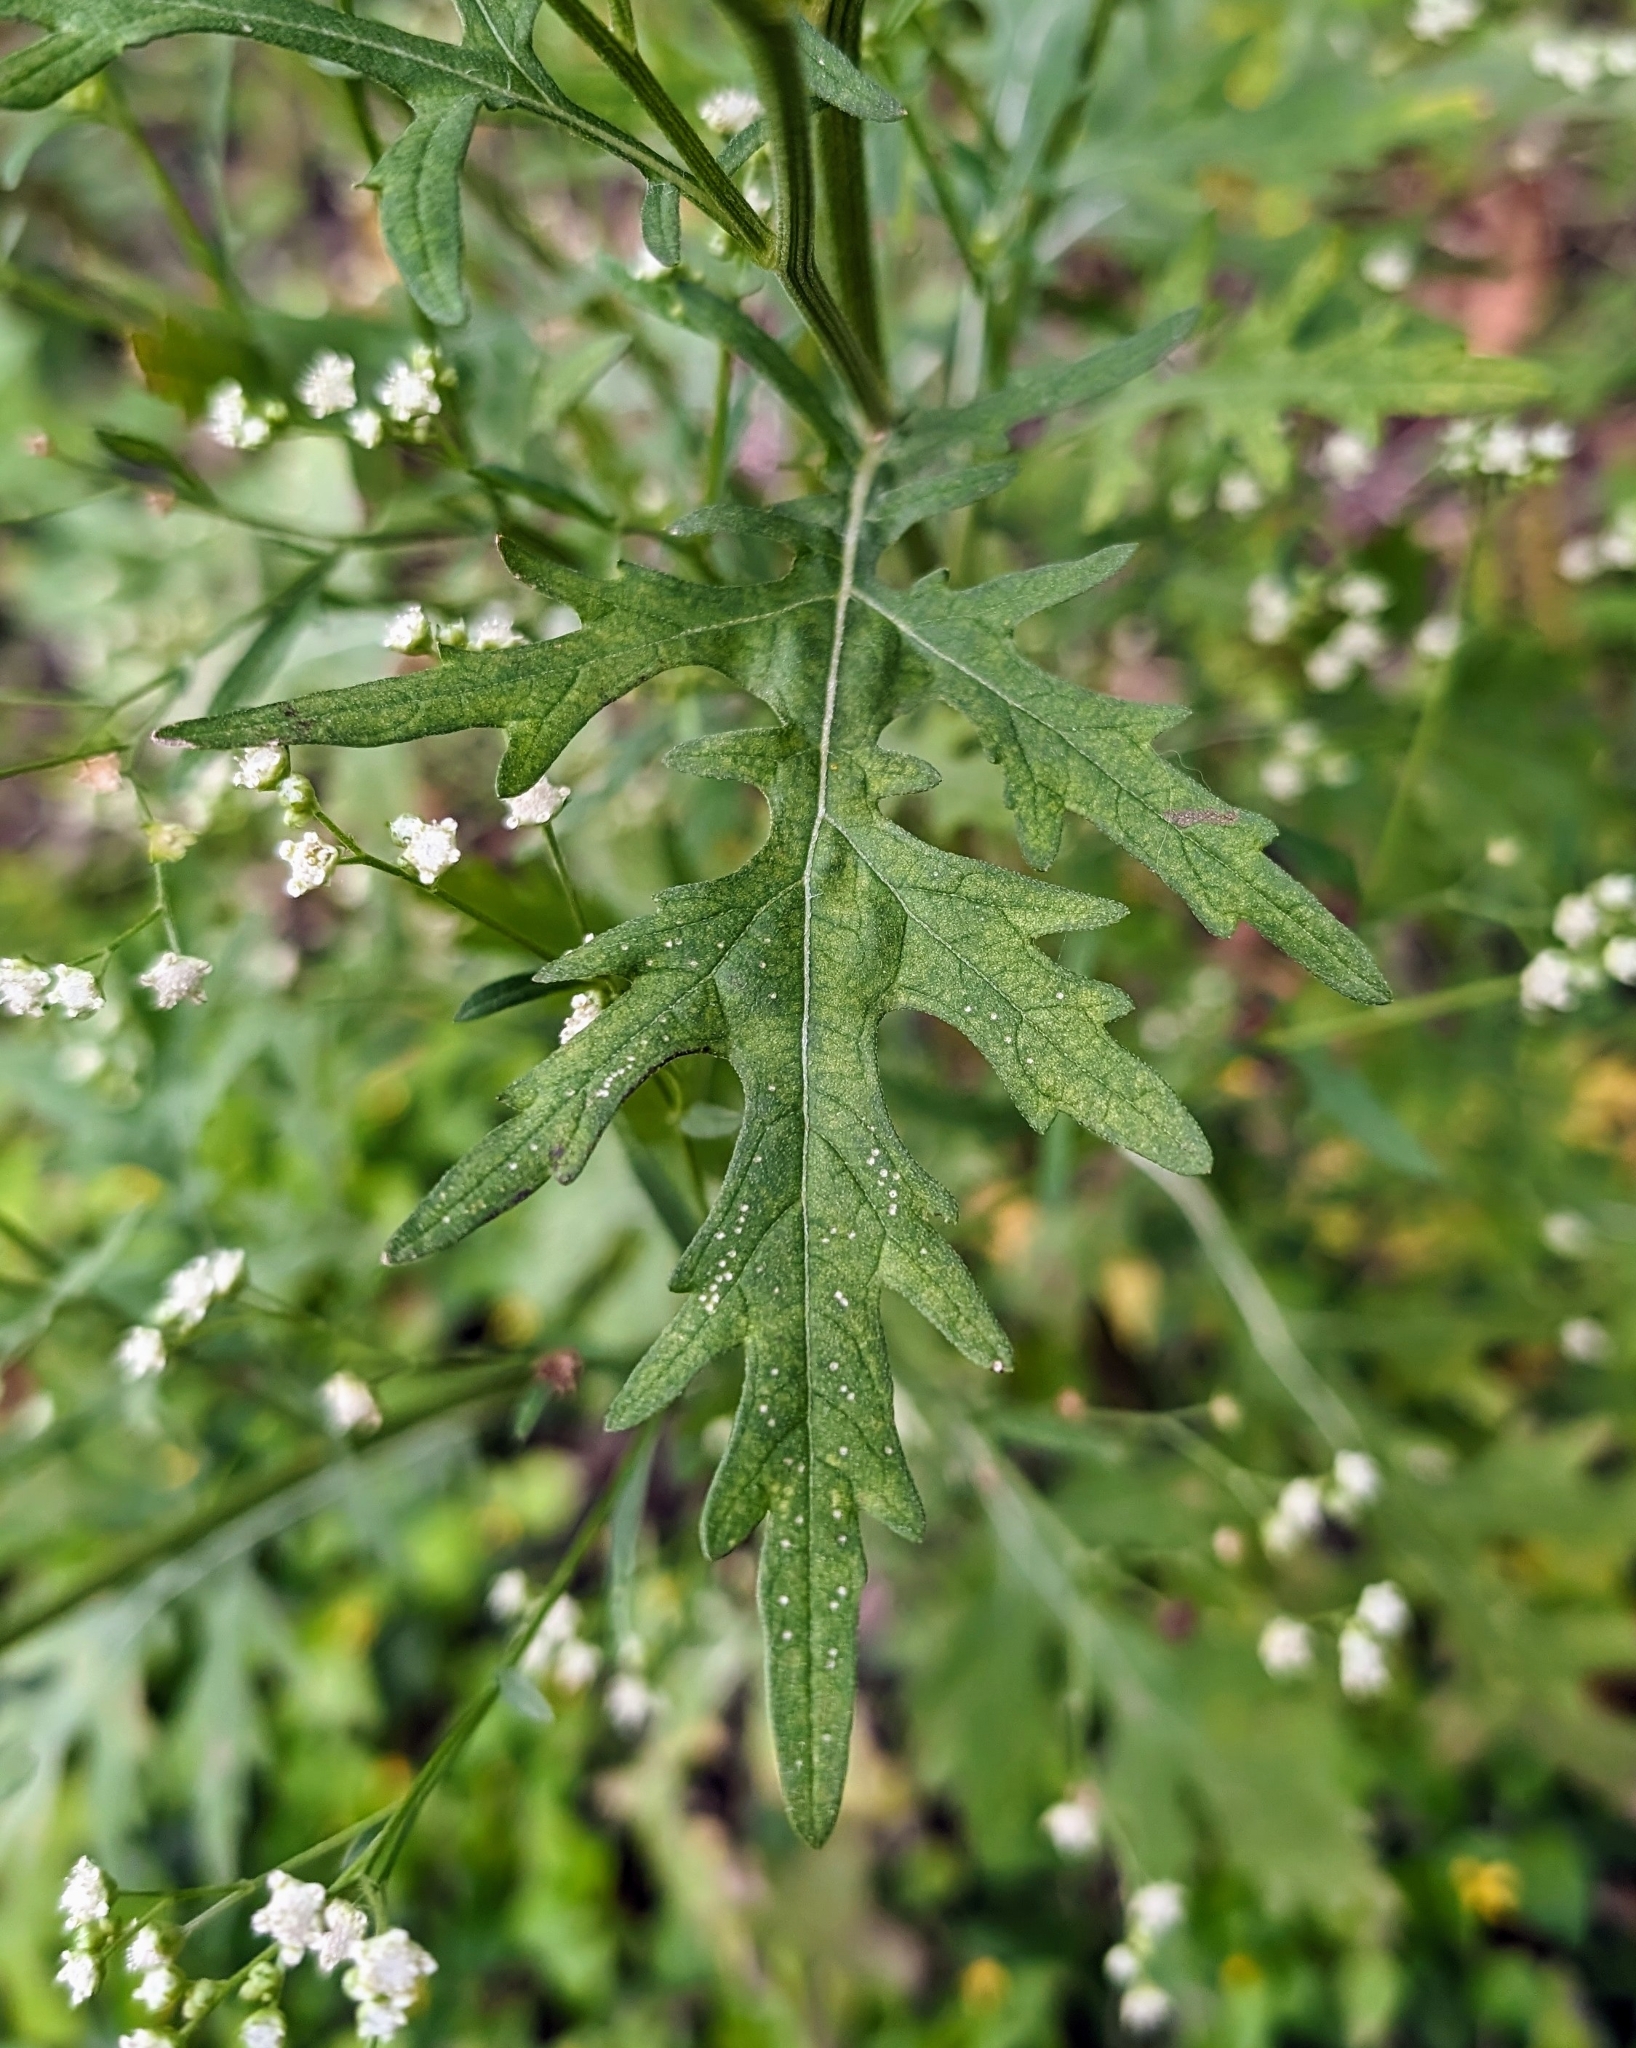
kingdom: Plantae
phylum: Tracheophyta
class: Magnoliopsida
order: Asterales
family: Asteraceae
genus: Parthenium
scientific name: Parthenium hysterophorus
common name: Santa maria feverfew
